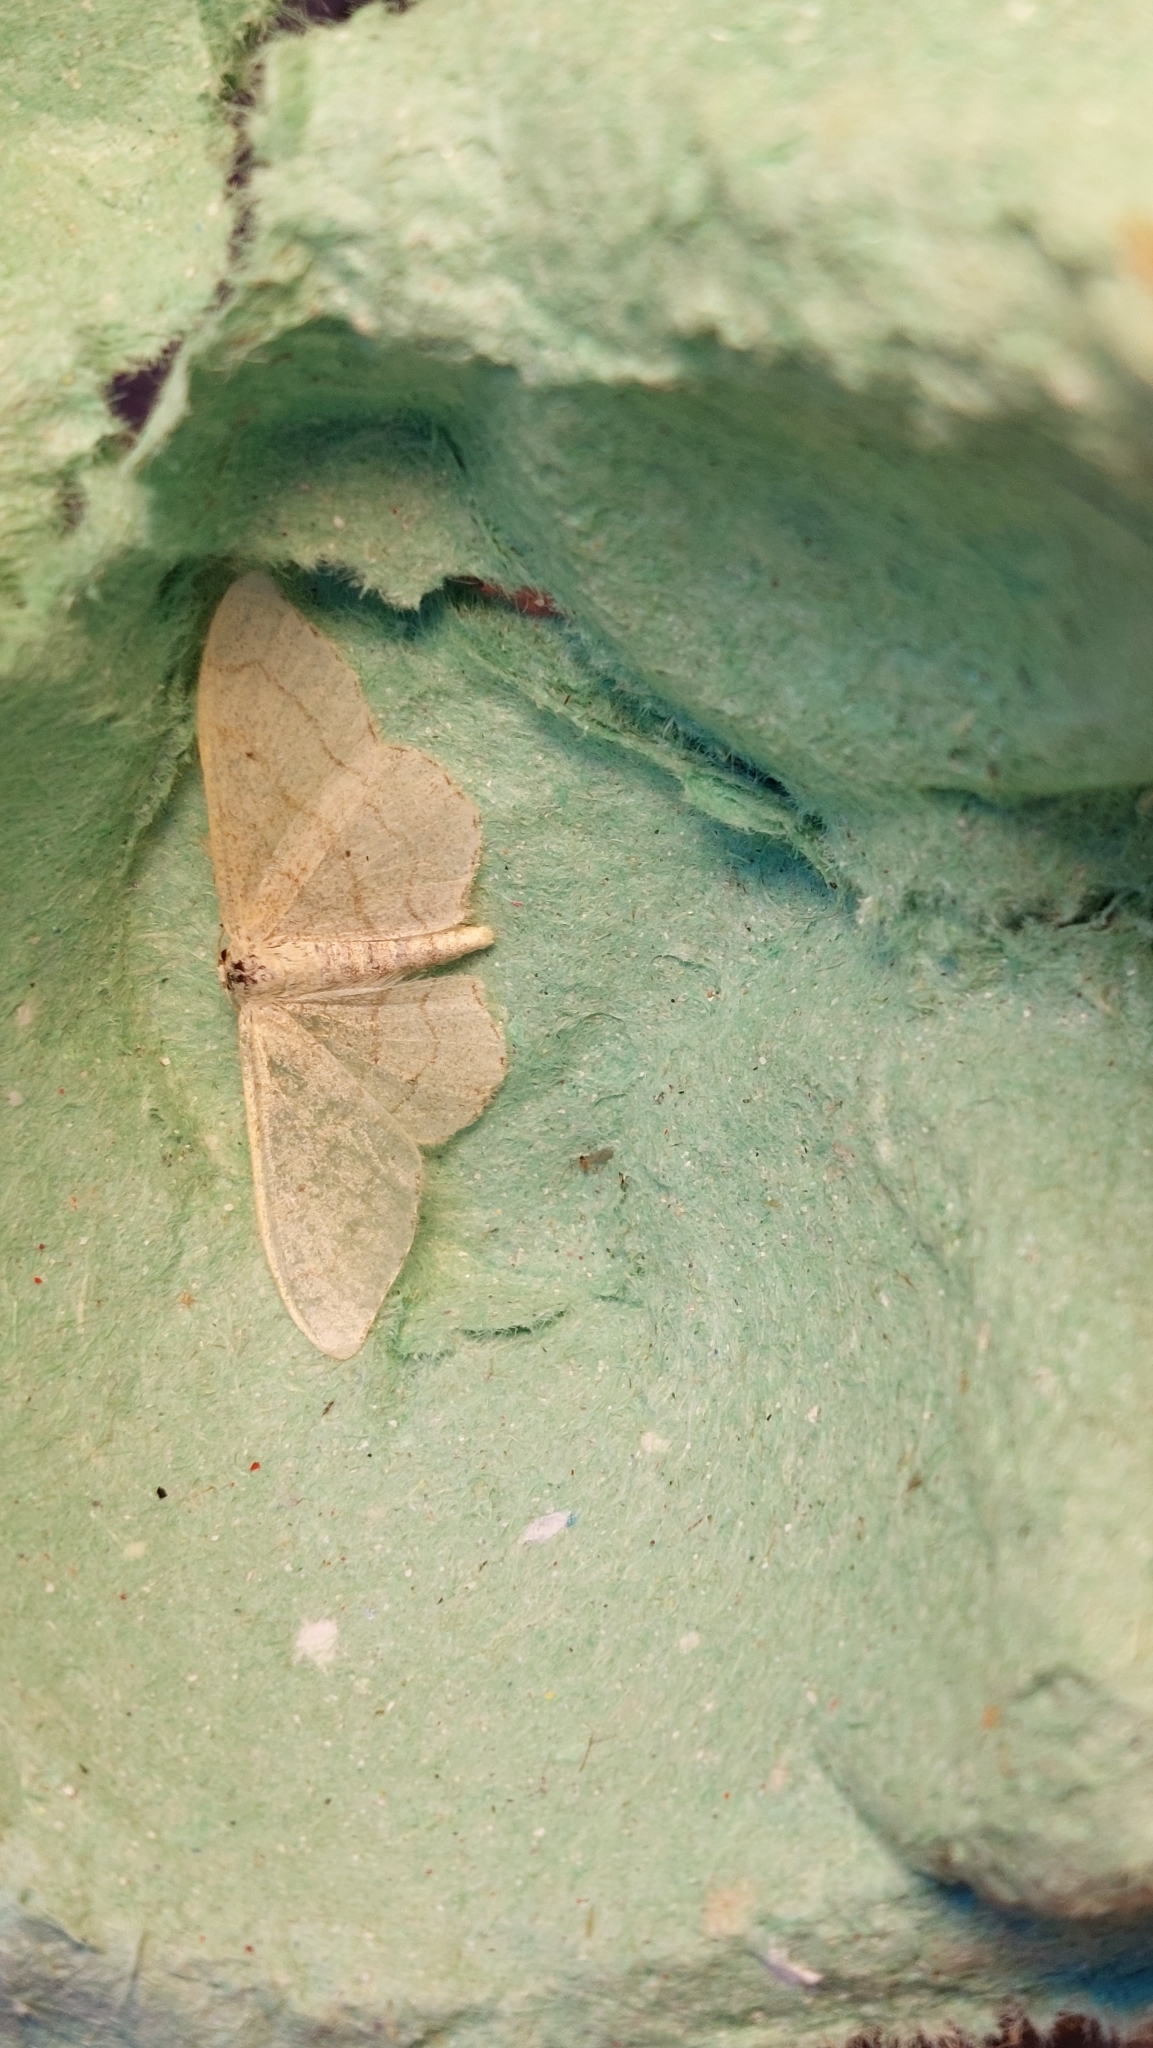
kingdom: Animalia
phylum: Arthropoda
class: Insecta
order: Lepidoptera
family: Geometridae
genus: Idaea
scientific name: Idaea aversata
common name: Riband wave
